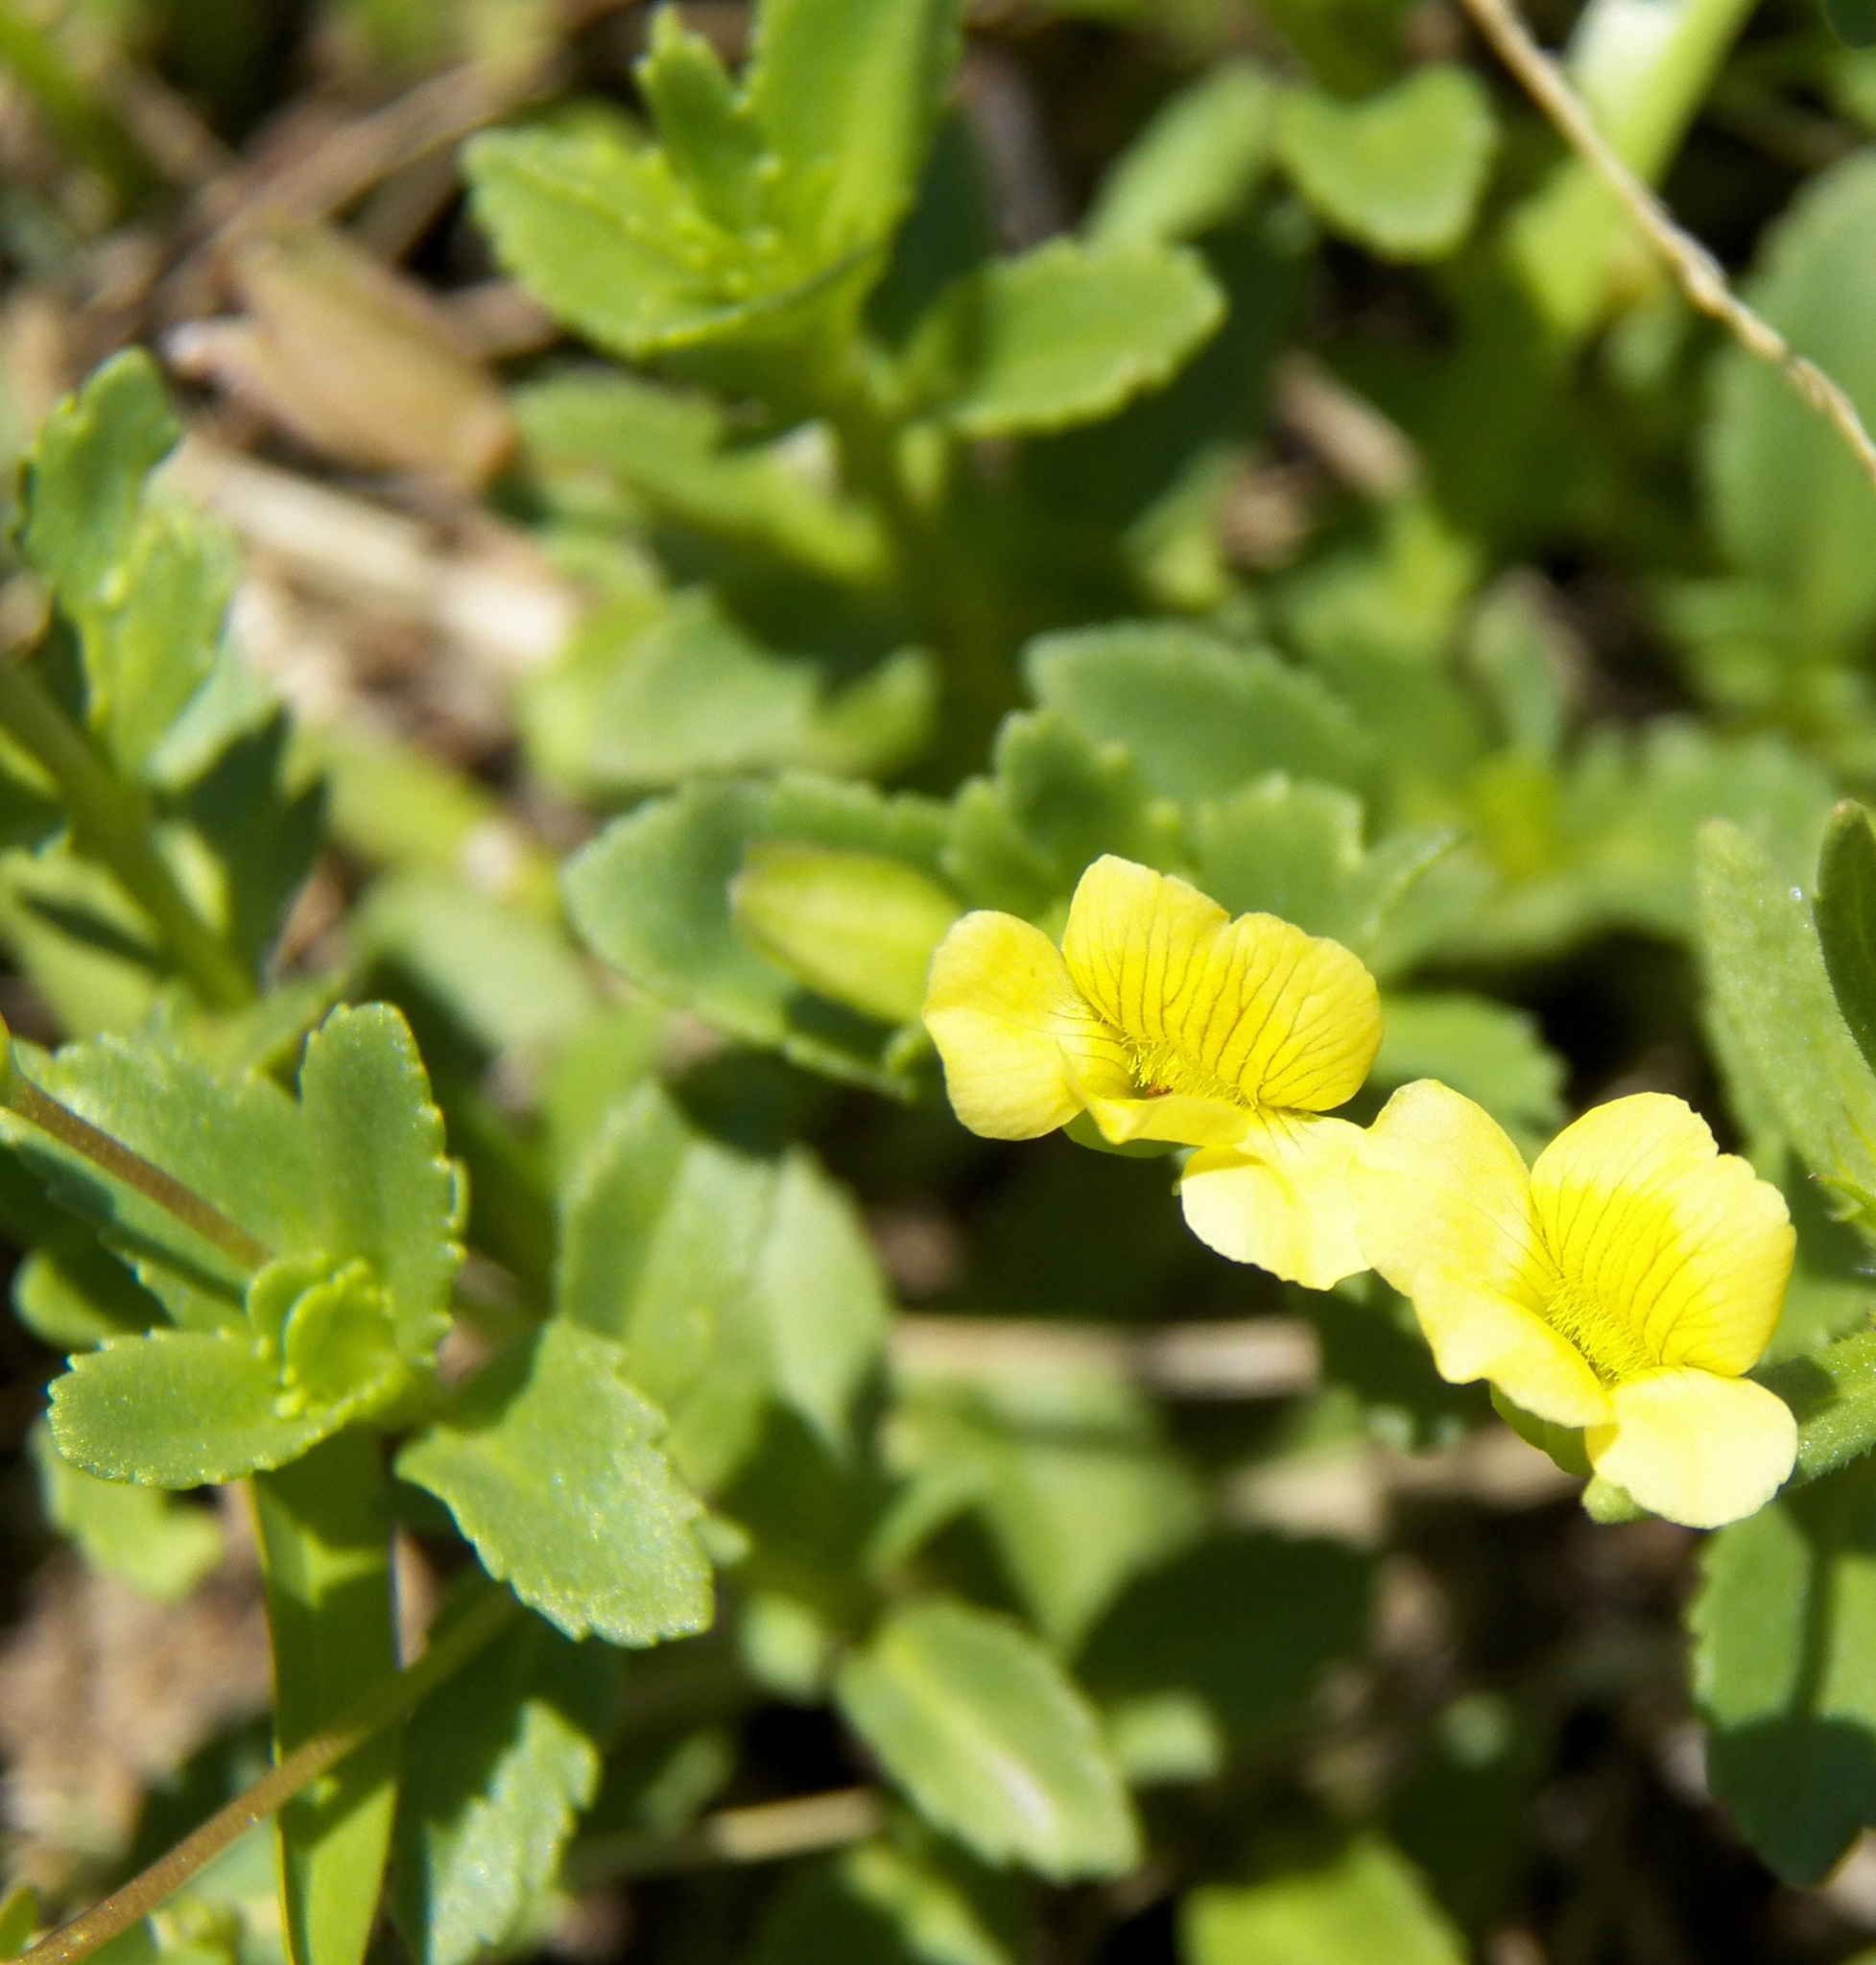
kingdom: Plantae
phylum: Tracheophyta
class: Magnoliopsida
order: Lamiales
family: Plantaginaceae
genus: Mecardonia
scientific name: Mecardonia procumbens
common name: Baby jump-up
